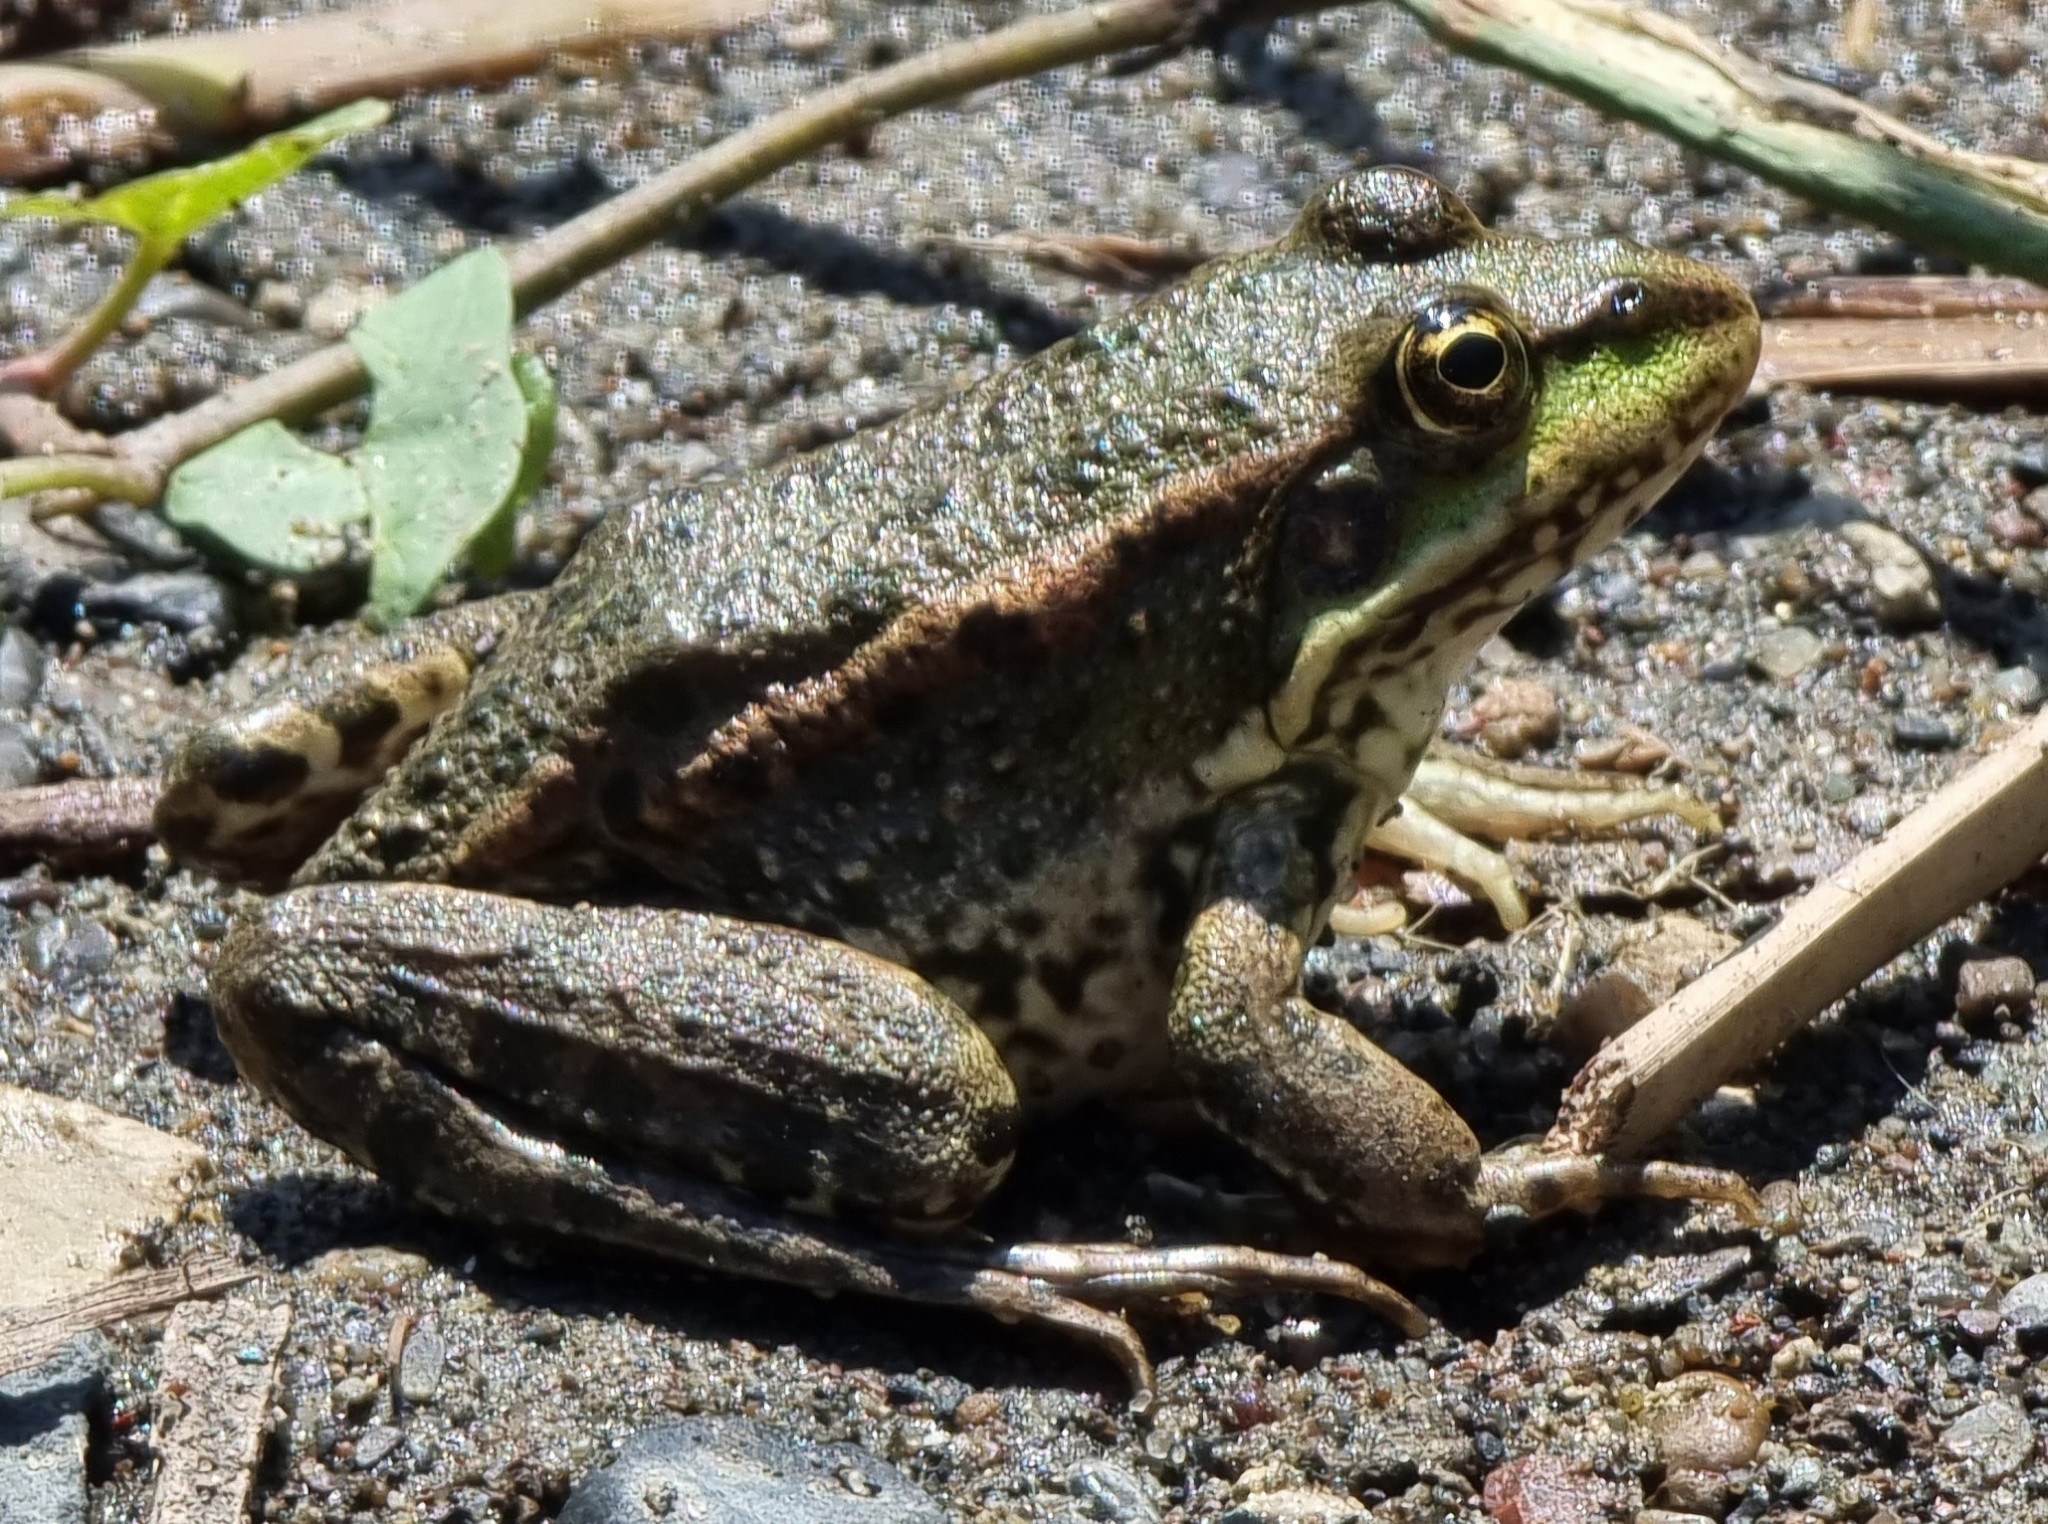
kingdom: Animalia
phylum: Chordata
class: Amphibia
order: Anura
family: Ranidae
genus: Pelophylax
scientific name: Pelophylax ridibundus
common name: Marsh frog
